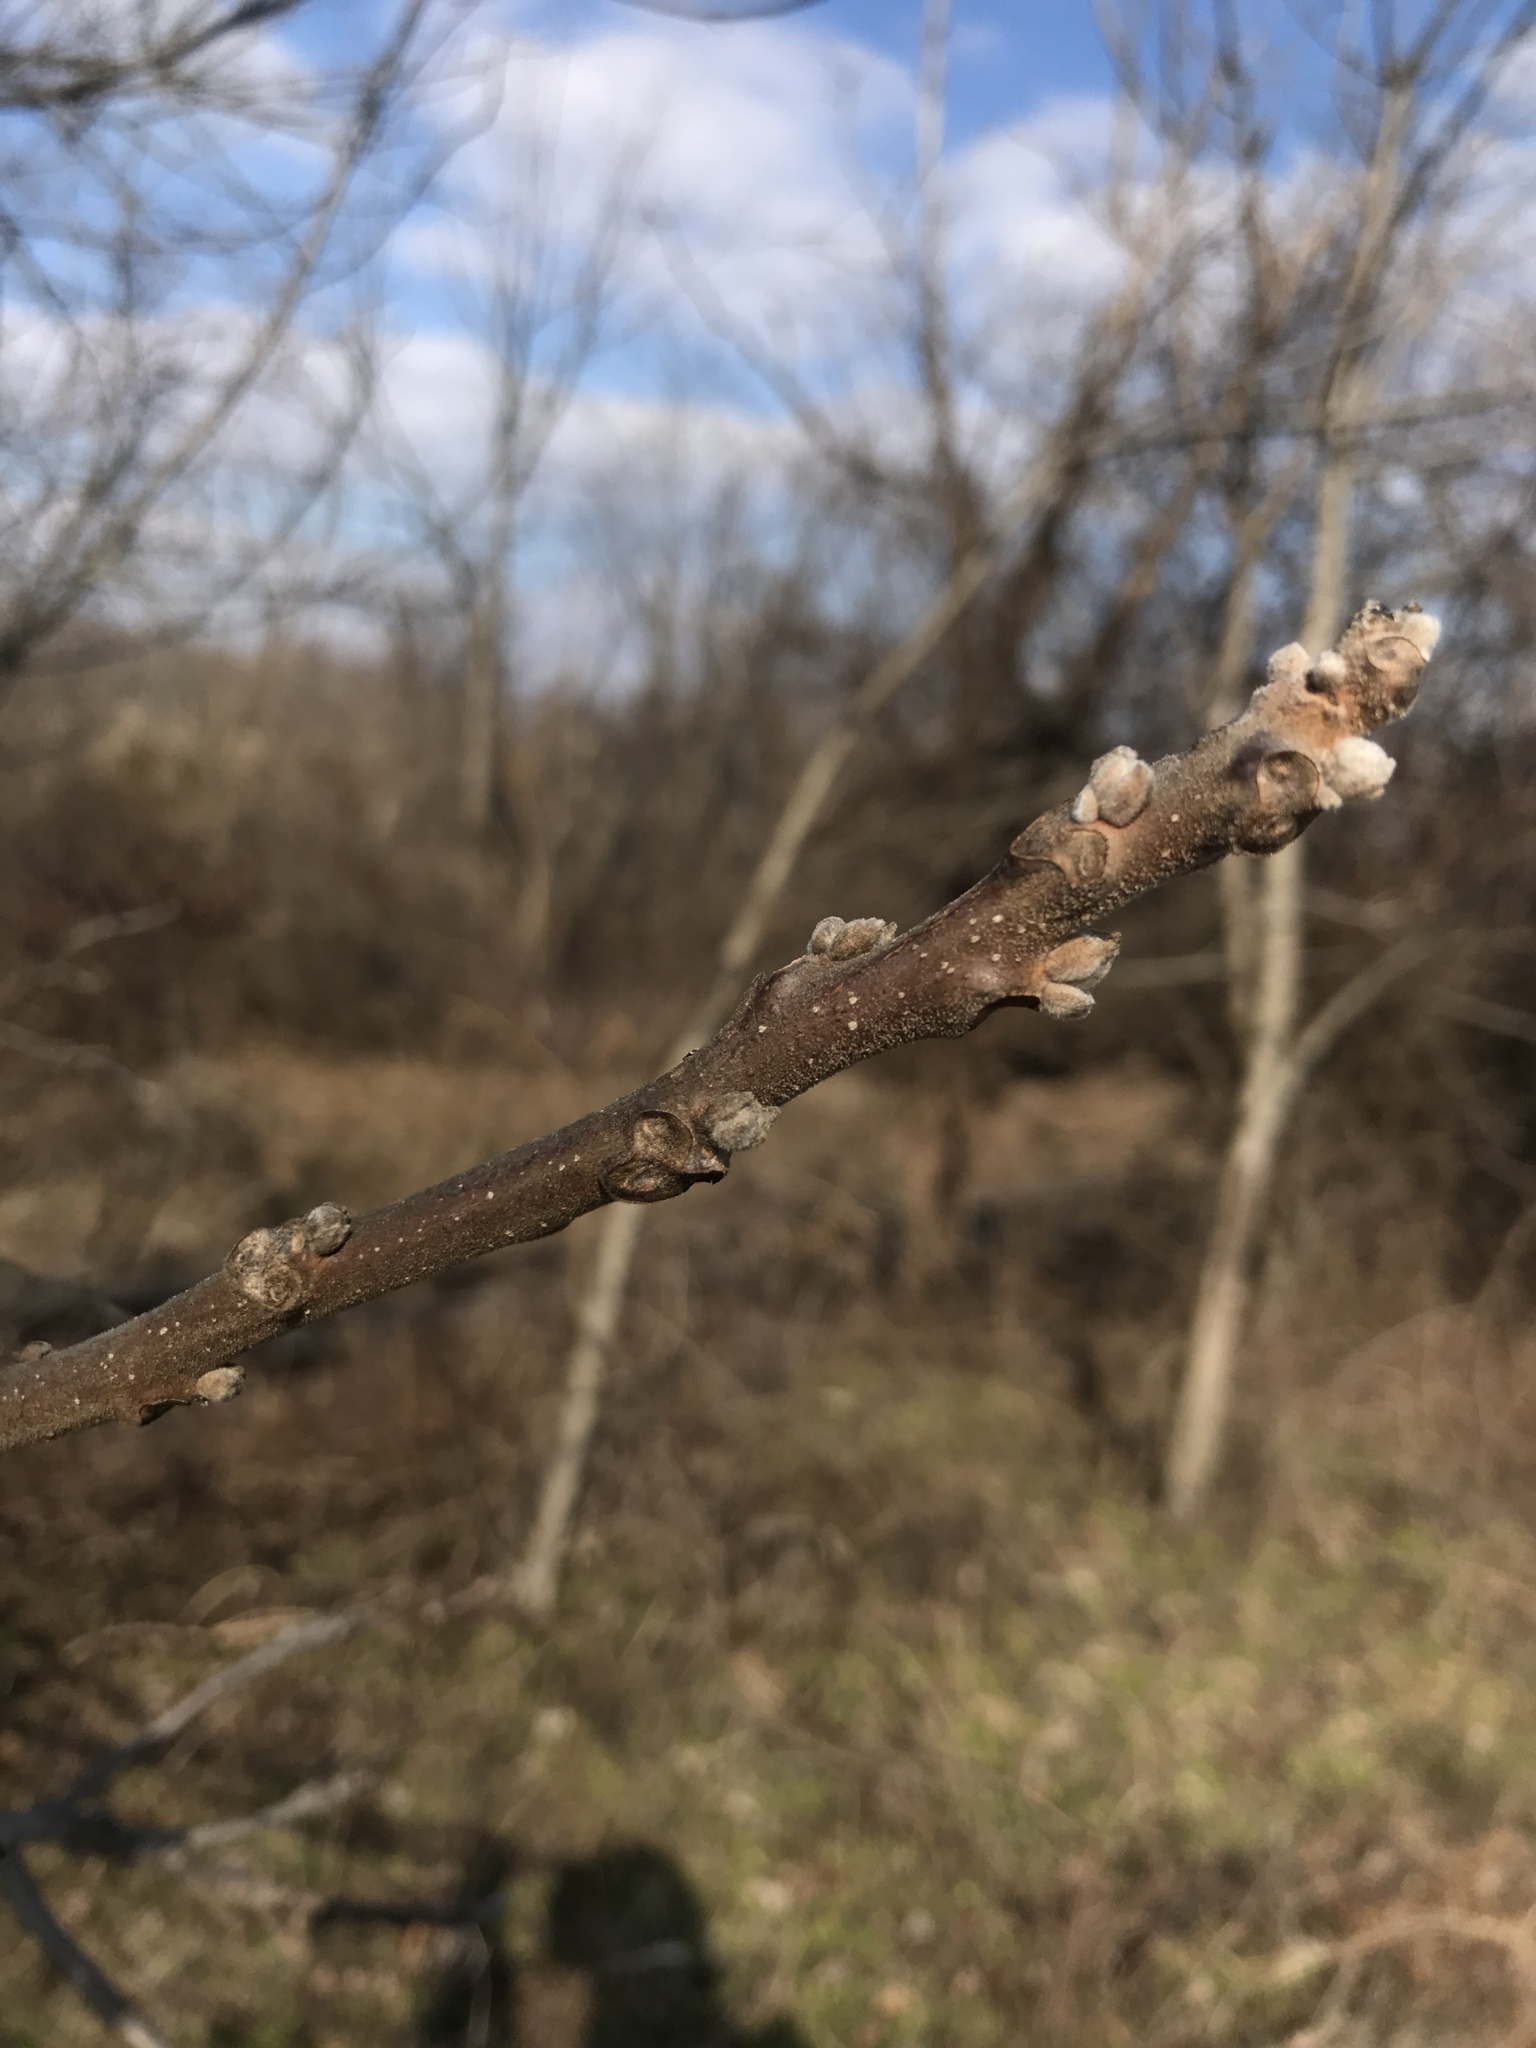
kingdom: Plantae
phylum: Tracheophyta
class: Magnoliopsida
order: Fagales
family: Juglandaceae
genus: Juglans
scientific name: Juglans nigra
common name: Black walnut
